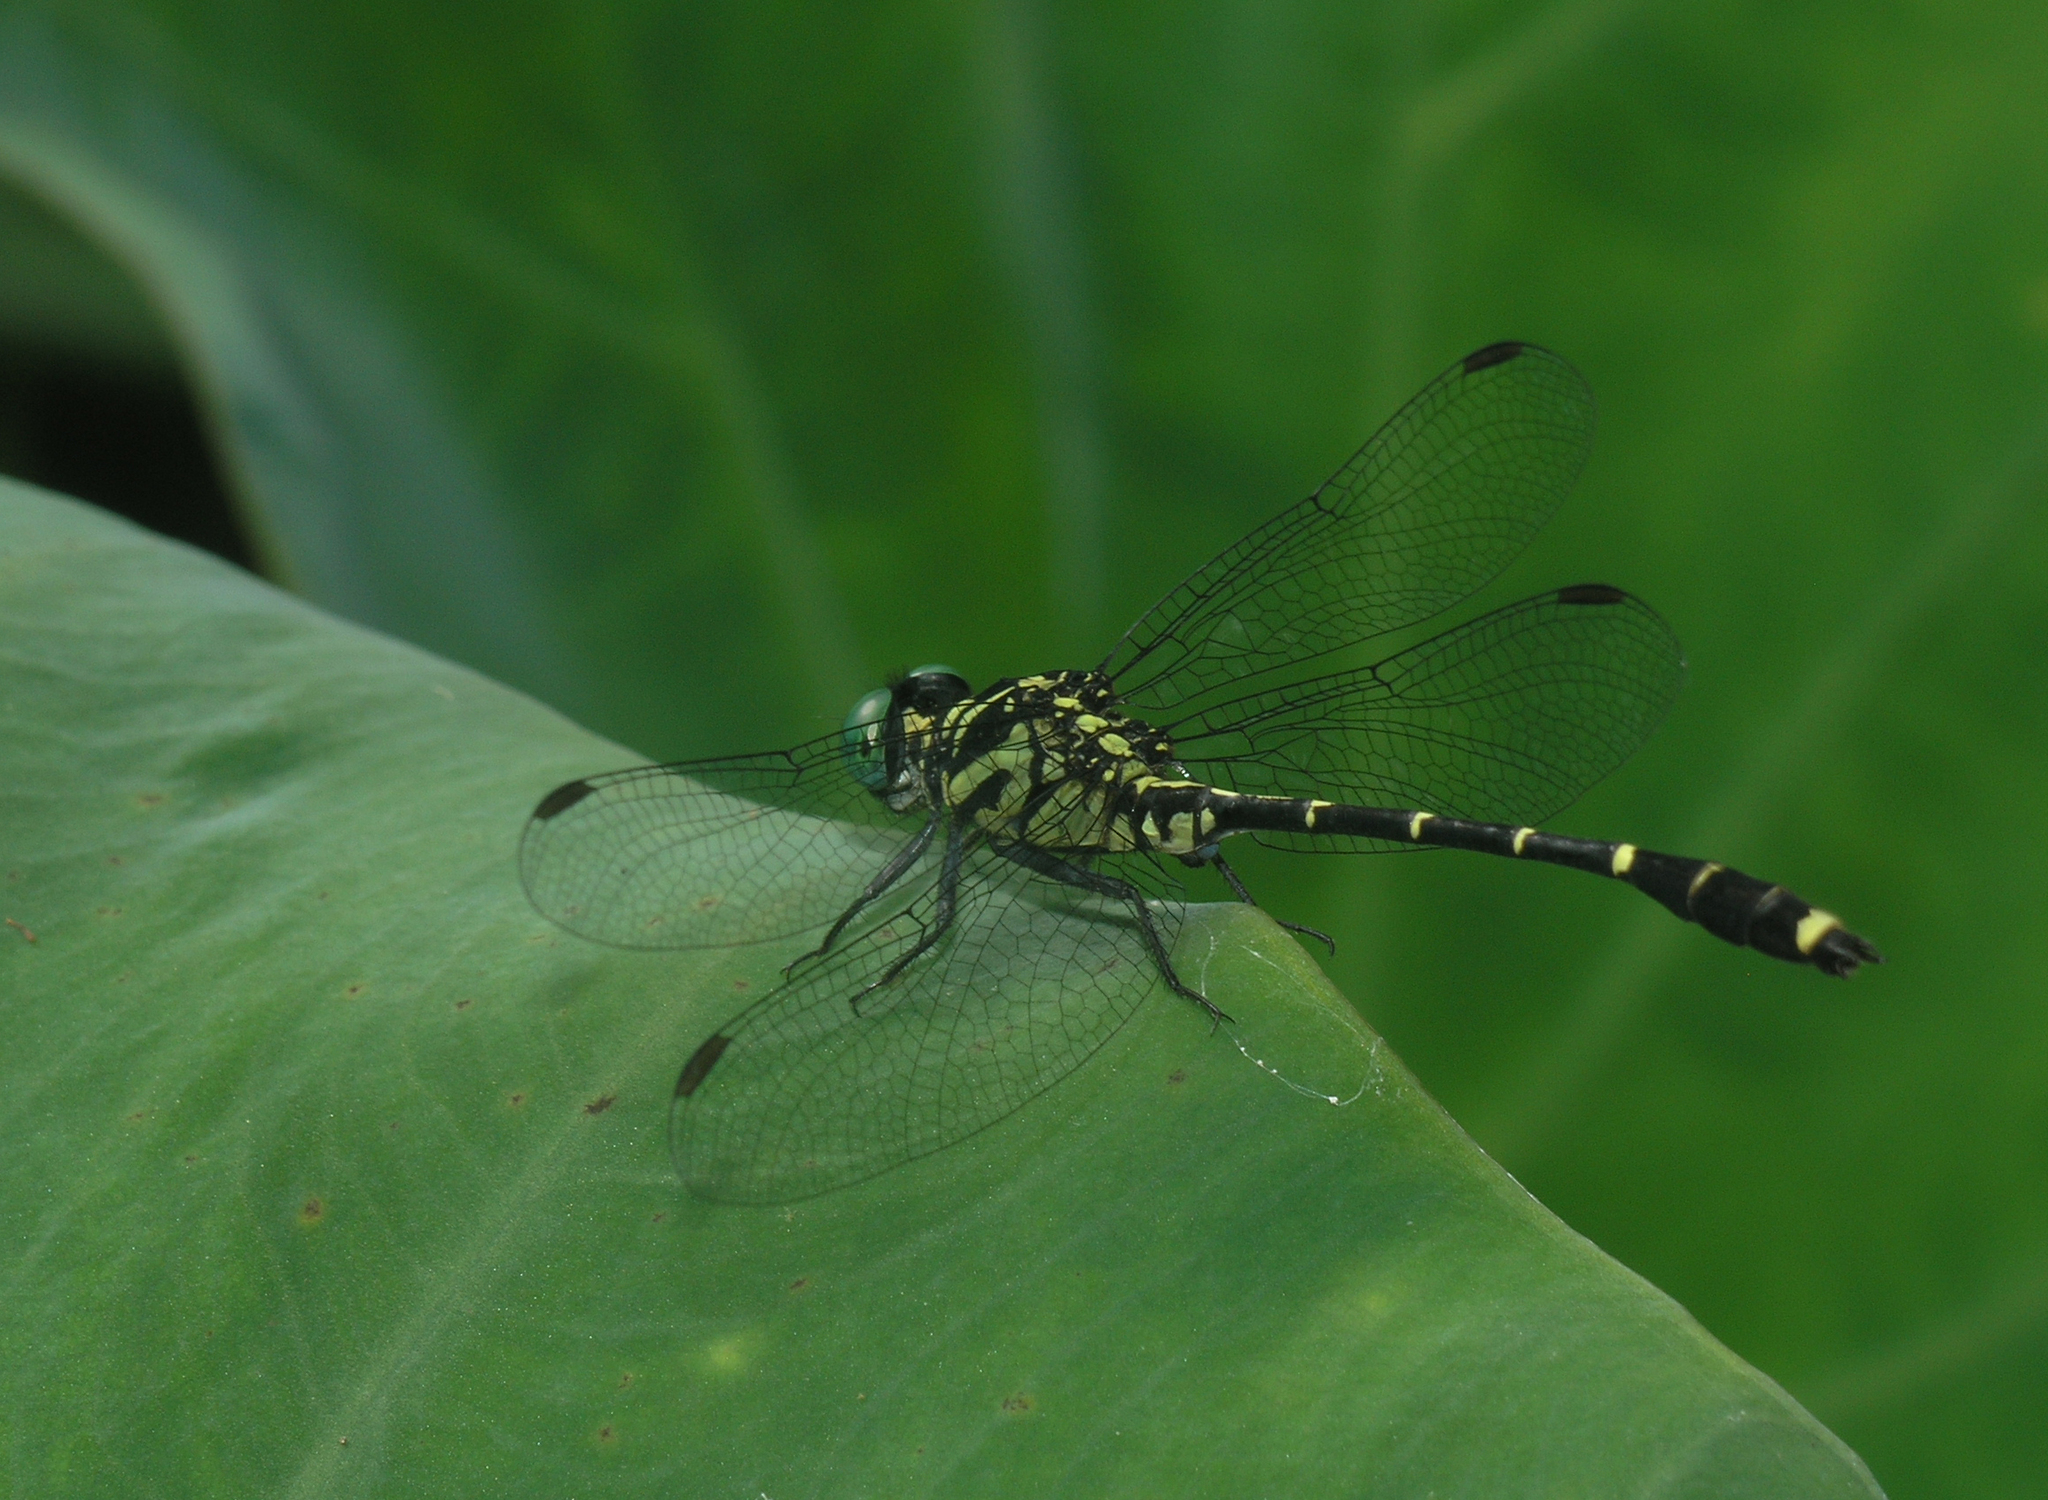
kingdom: Animalia
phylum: Arthropoda
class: Insecta
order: Odonata
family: Gomphidae
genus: Burmagomphus
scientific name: Burmagomphus divaricatus
